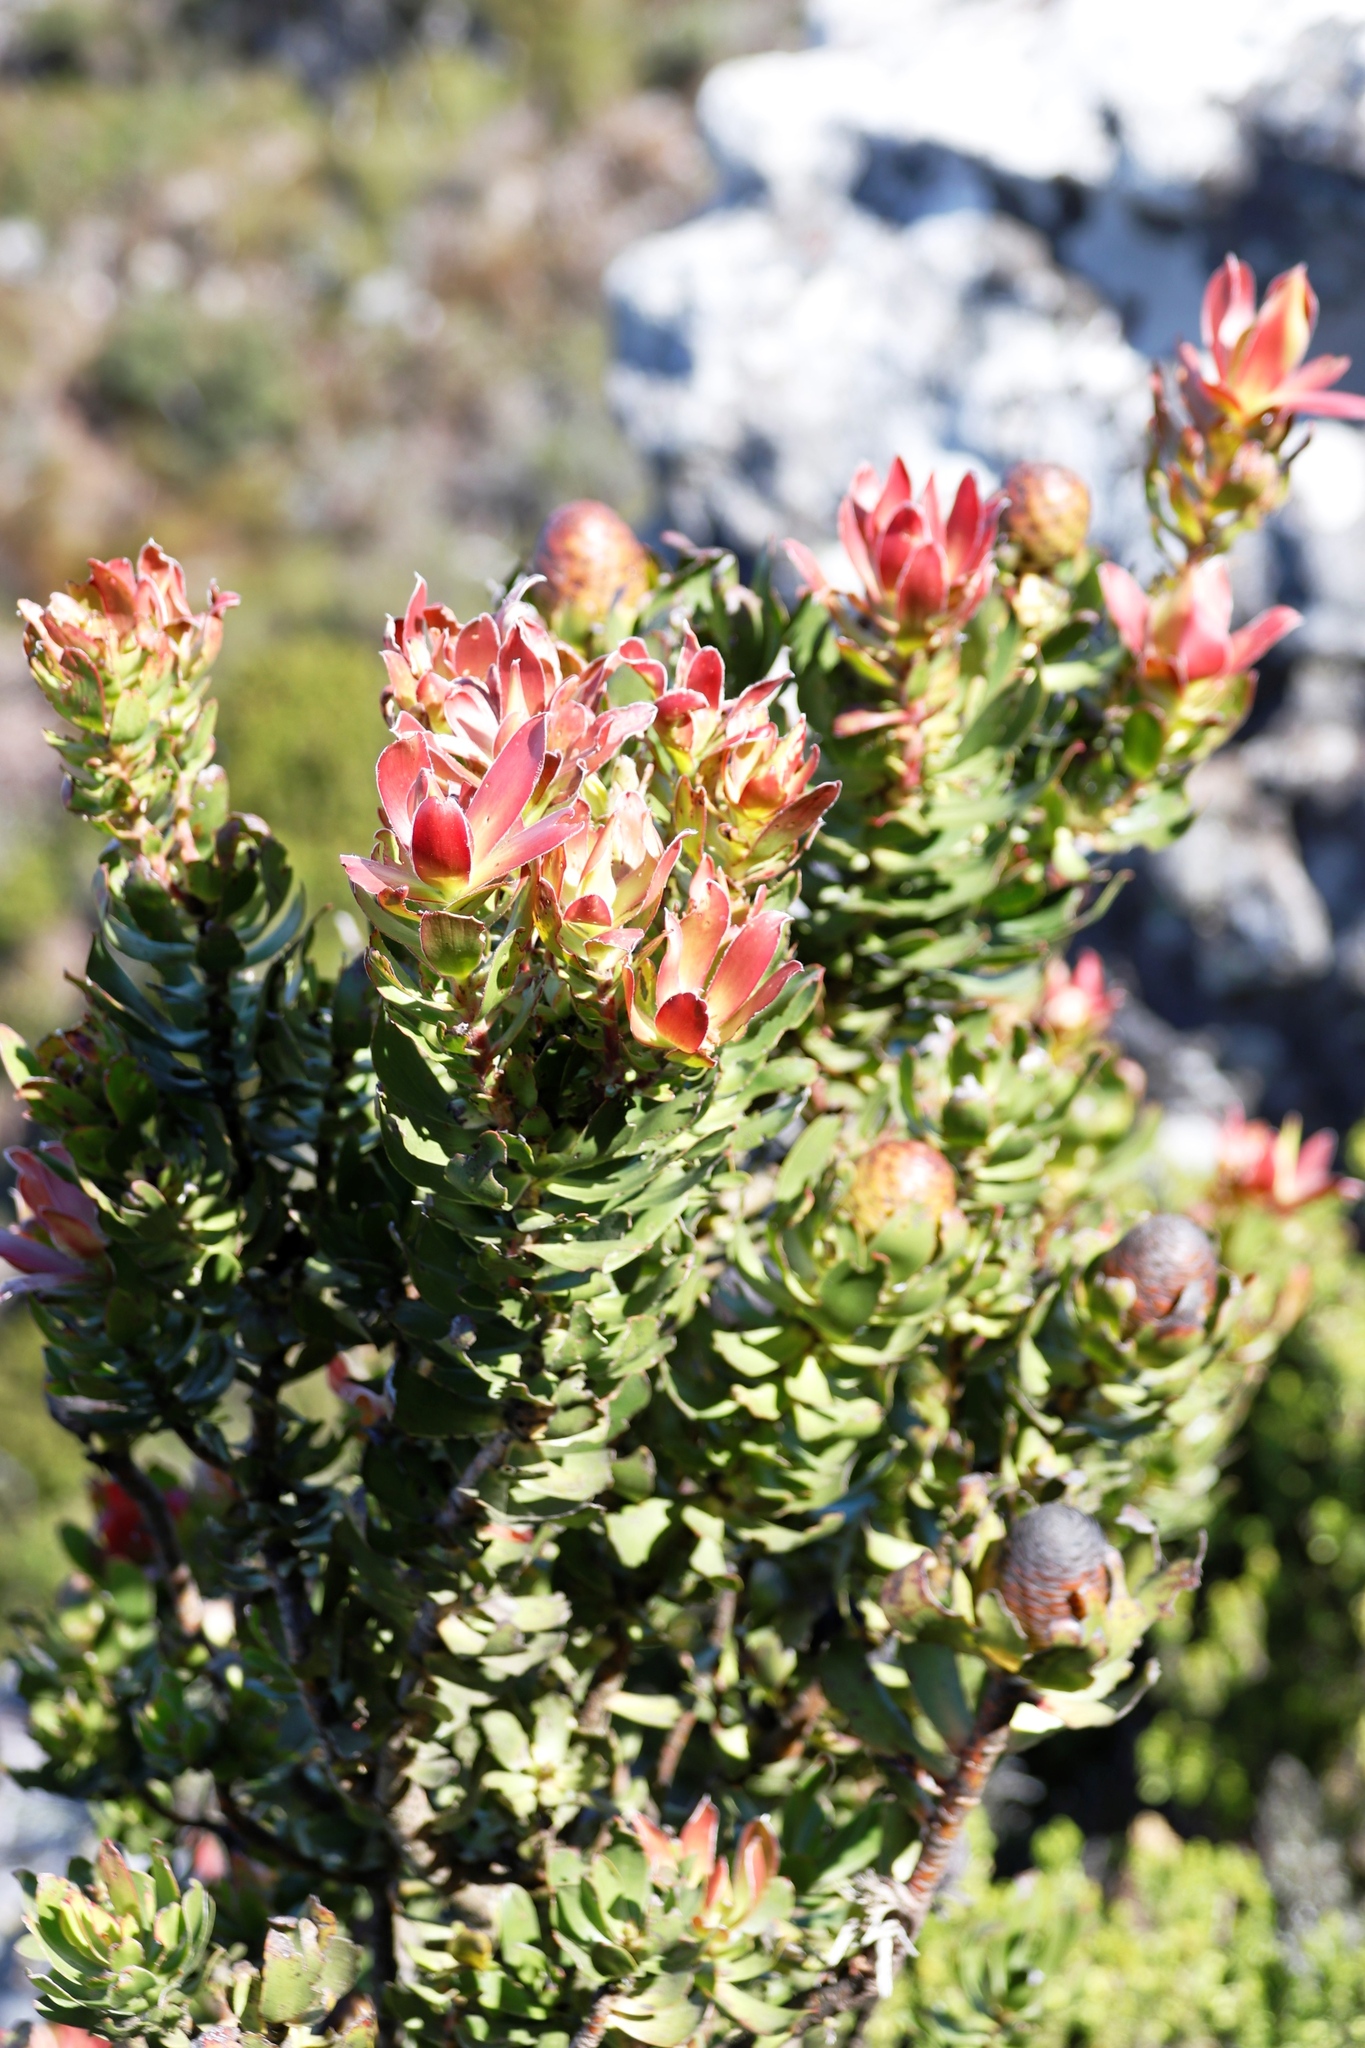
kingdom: Plantae
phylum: Tracheophyta
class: Magnoliopsida
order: Proteales
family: Proteaceae
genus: Leucadendron
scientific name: Leucadendron strobilinum
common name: Mountain rose
